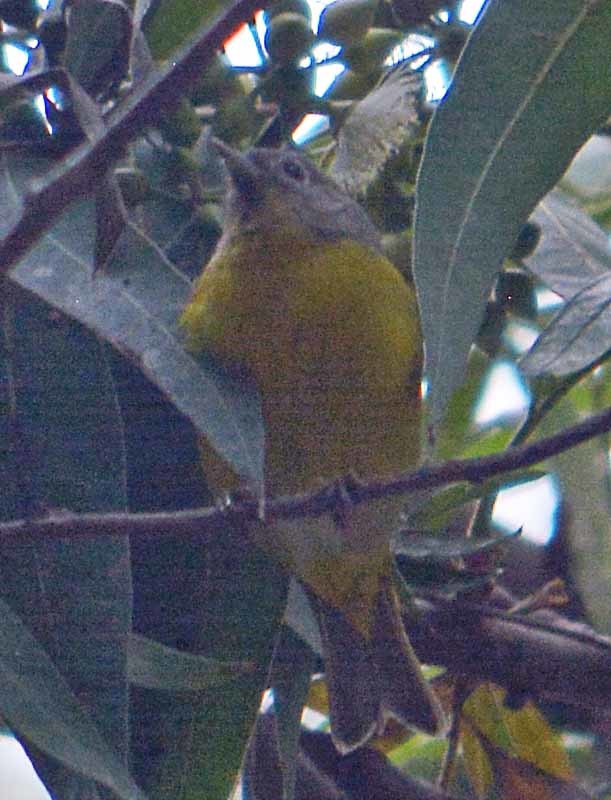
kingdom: Animalia
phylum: Chordata
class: Aves
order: Passeriformes
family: Parulidae
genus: Leiothlypis
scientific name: Leiothlypis ruficapilla
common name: Nashville warbler
